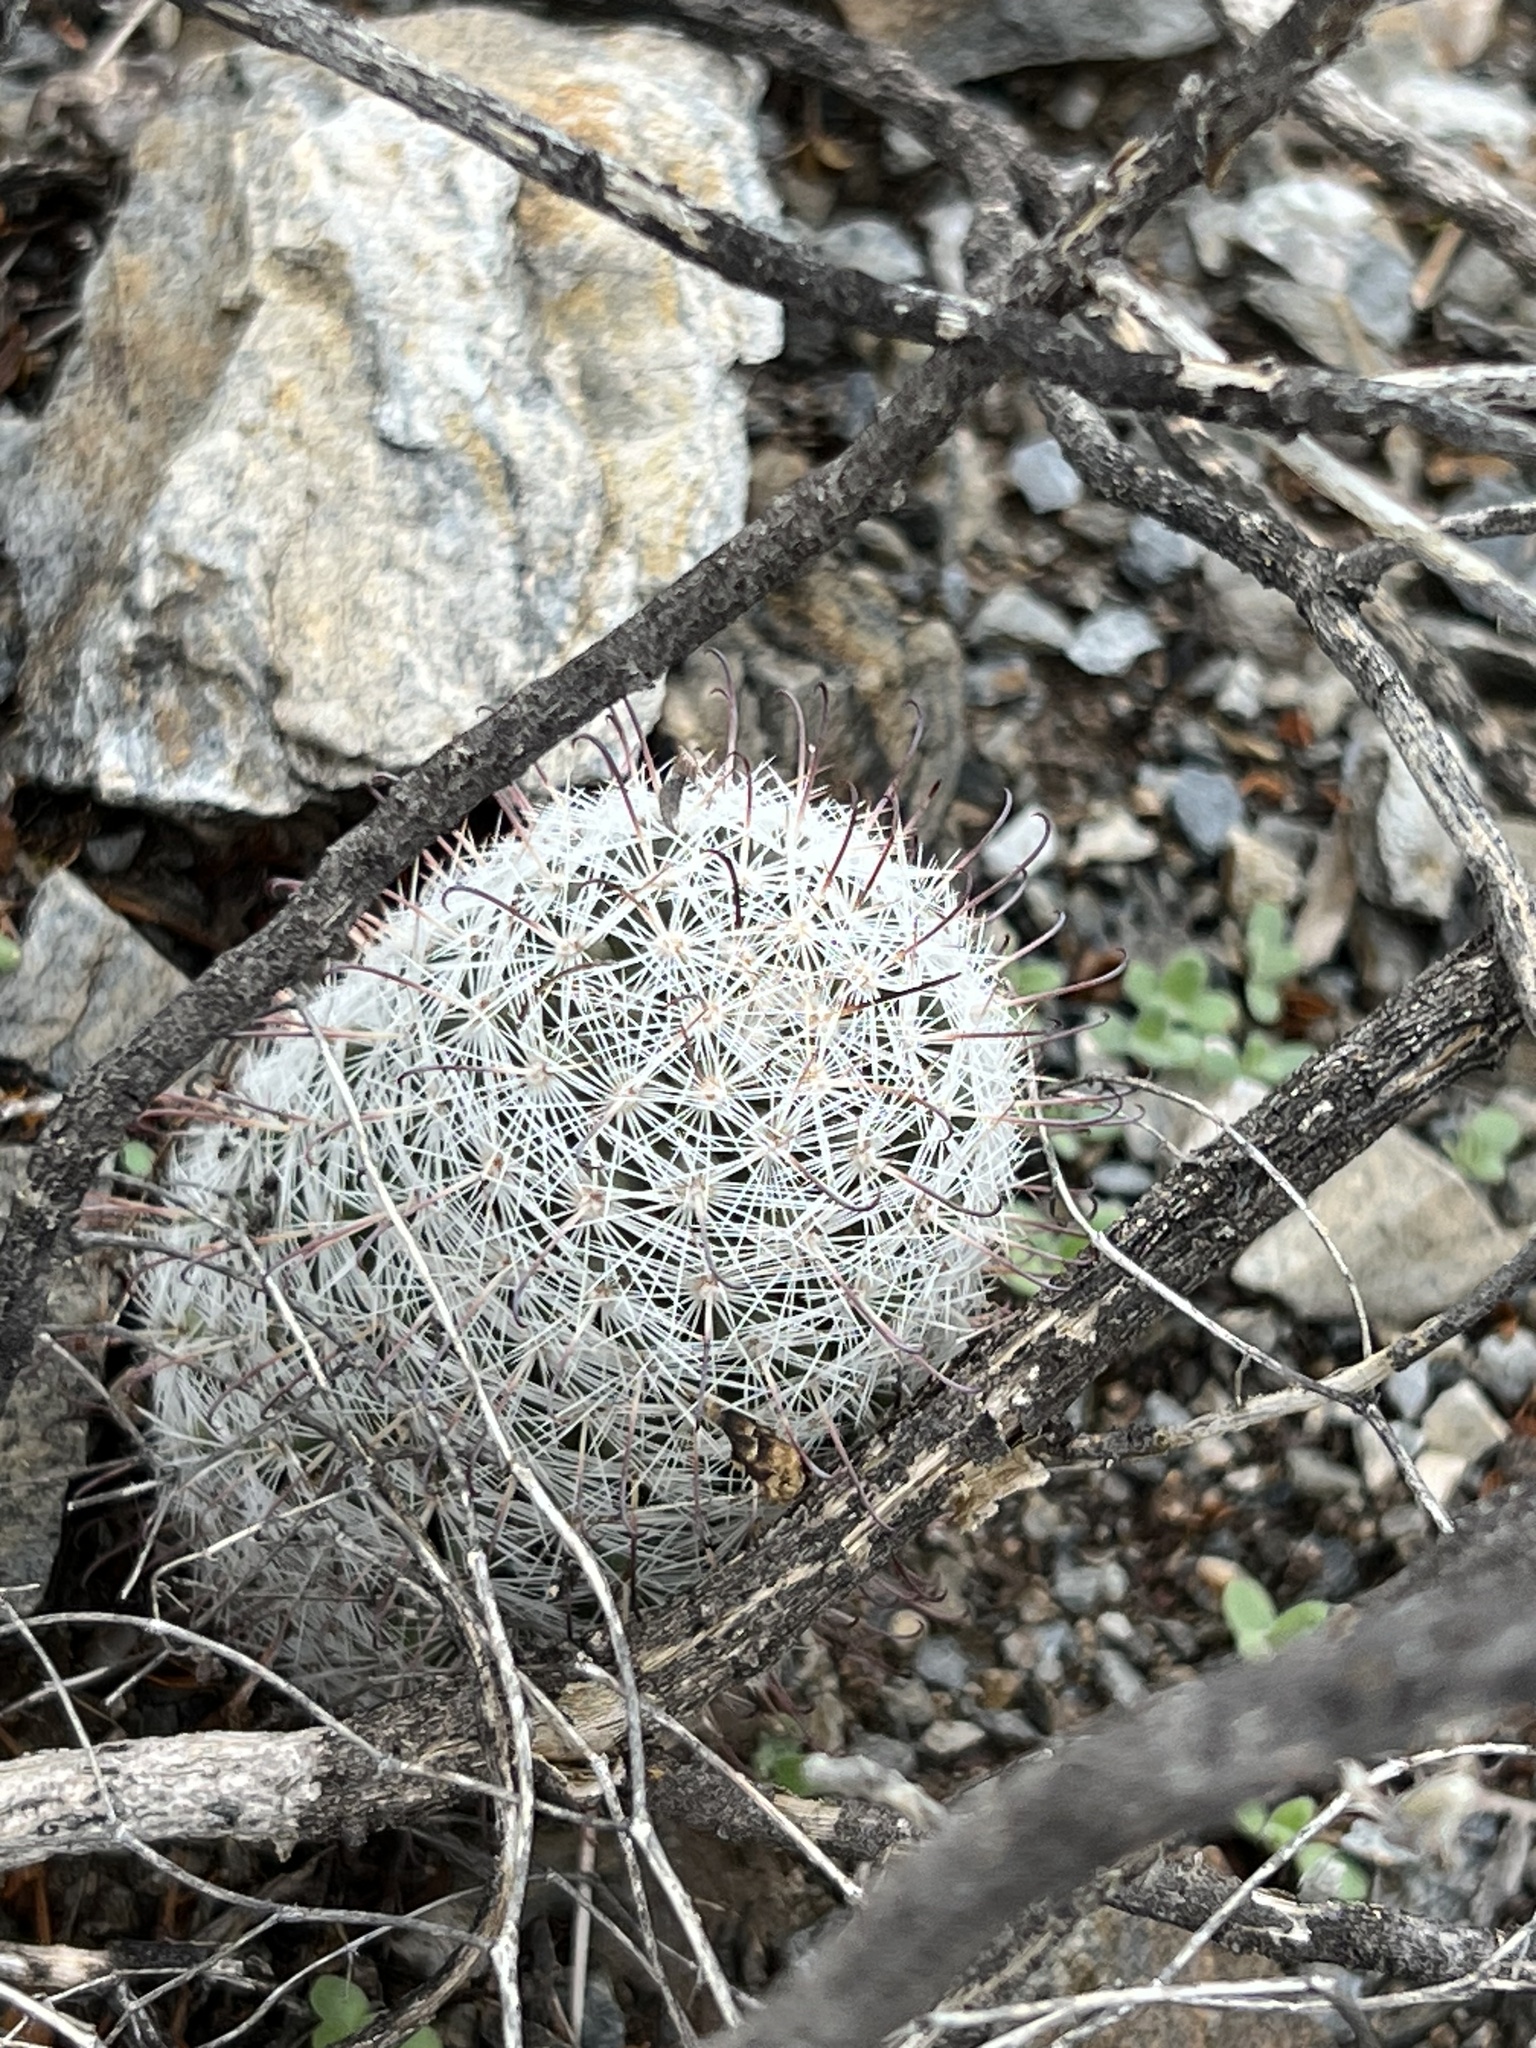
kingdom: Plantae
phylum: Tracheophyta
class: Magnoliopsida
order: Caryophyllales
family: Cactaceae
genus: Cochemiea
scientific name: Cochemiea grahamii
